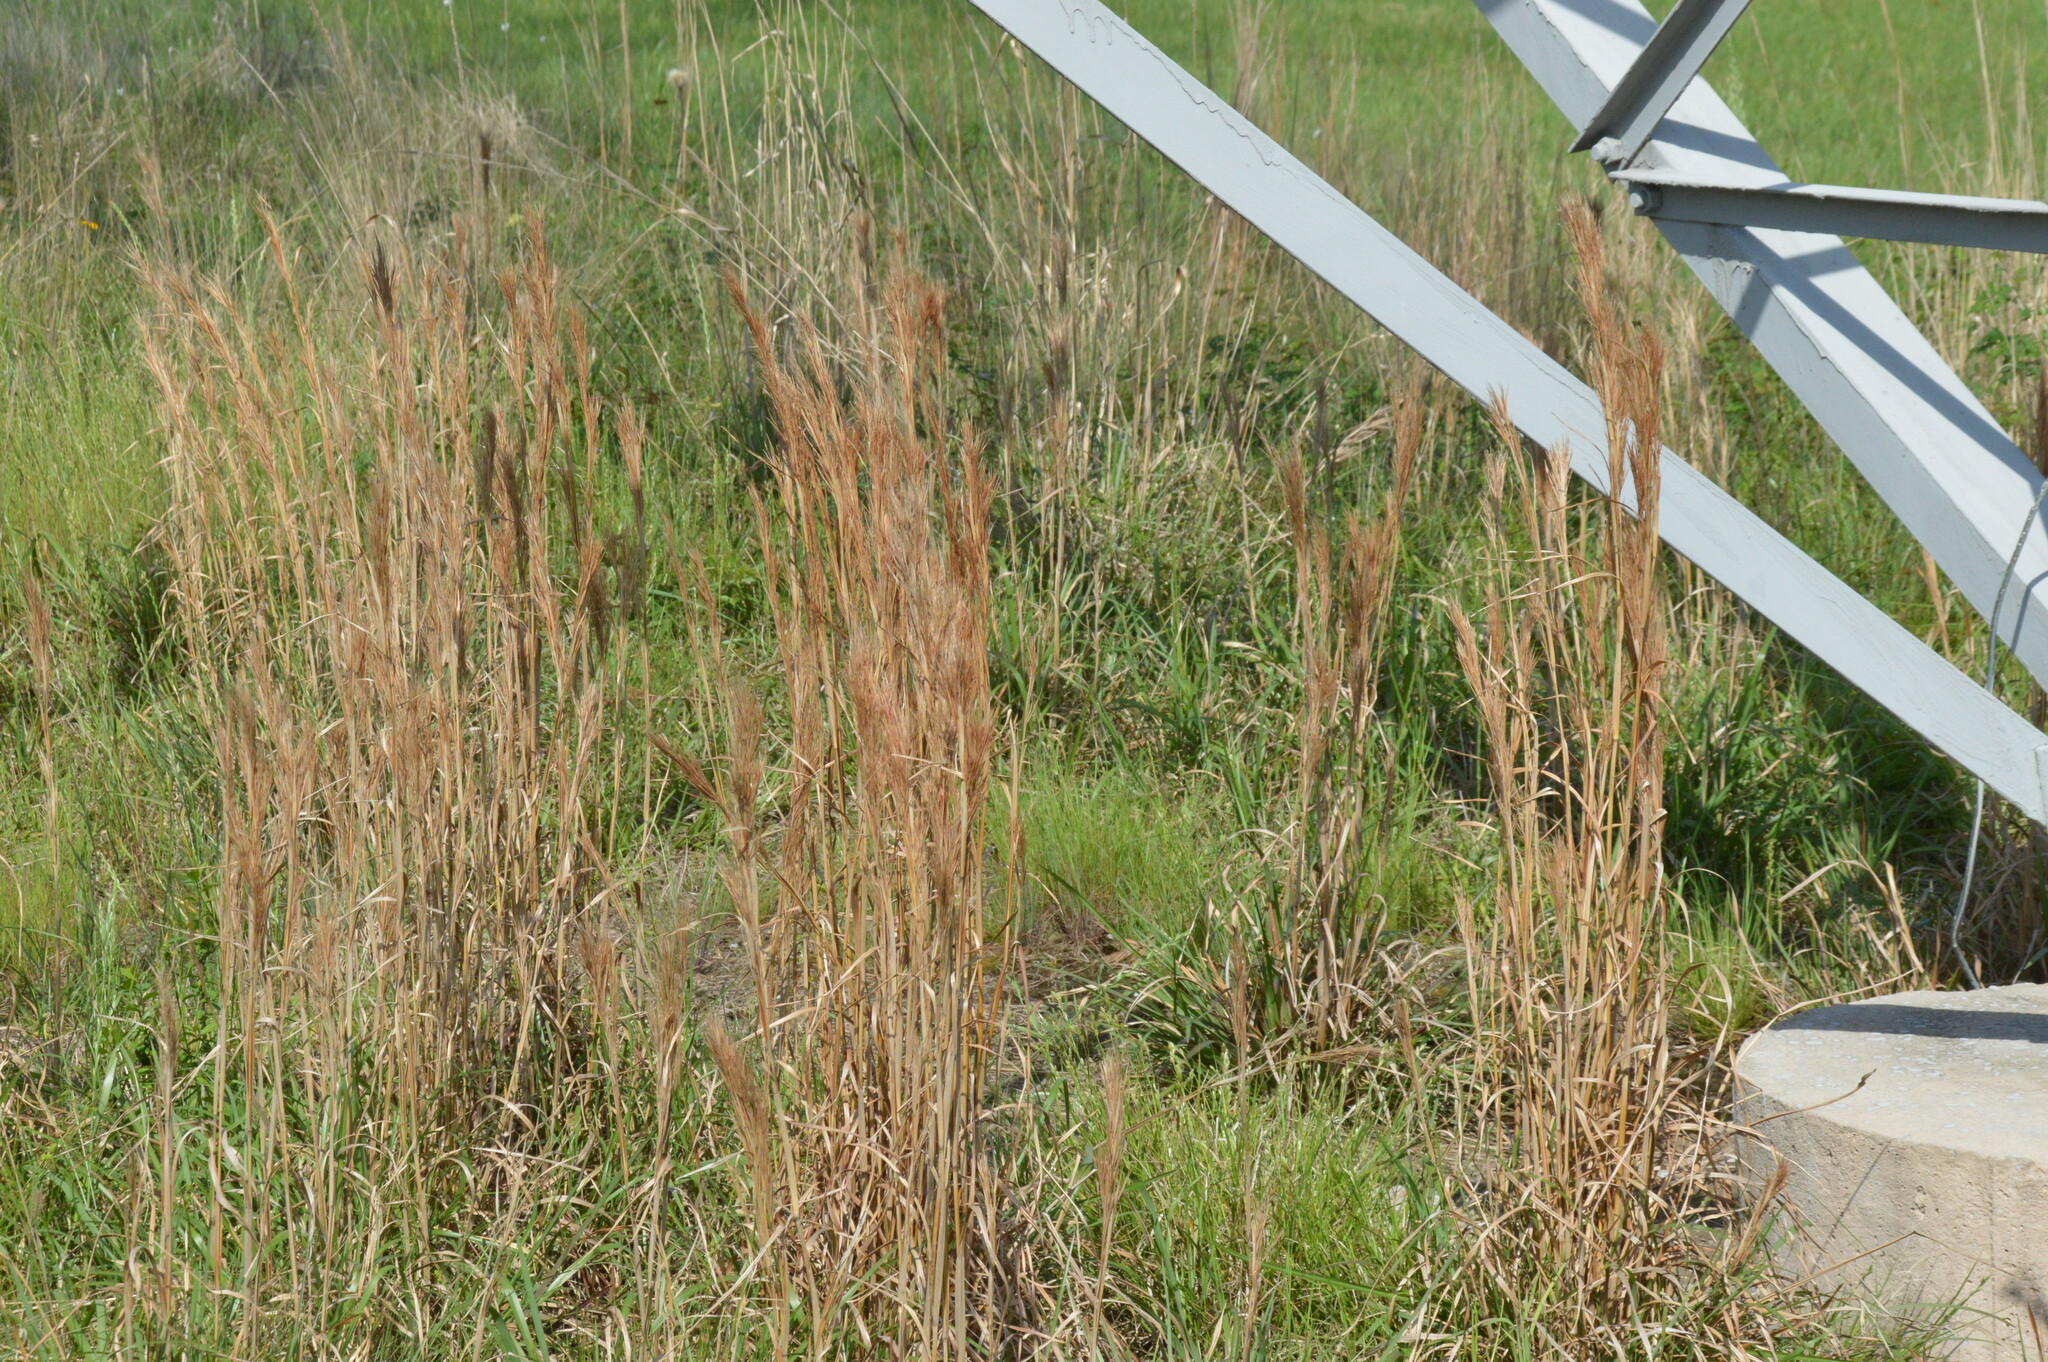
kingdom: Plantae
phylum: Tracheophyta
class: Liliopsida
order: Poales
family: Poaceae
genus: Andropogon
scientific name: Andropogon tenuispatheus
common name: Bushy bluestem
